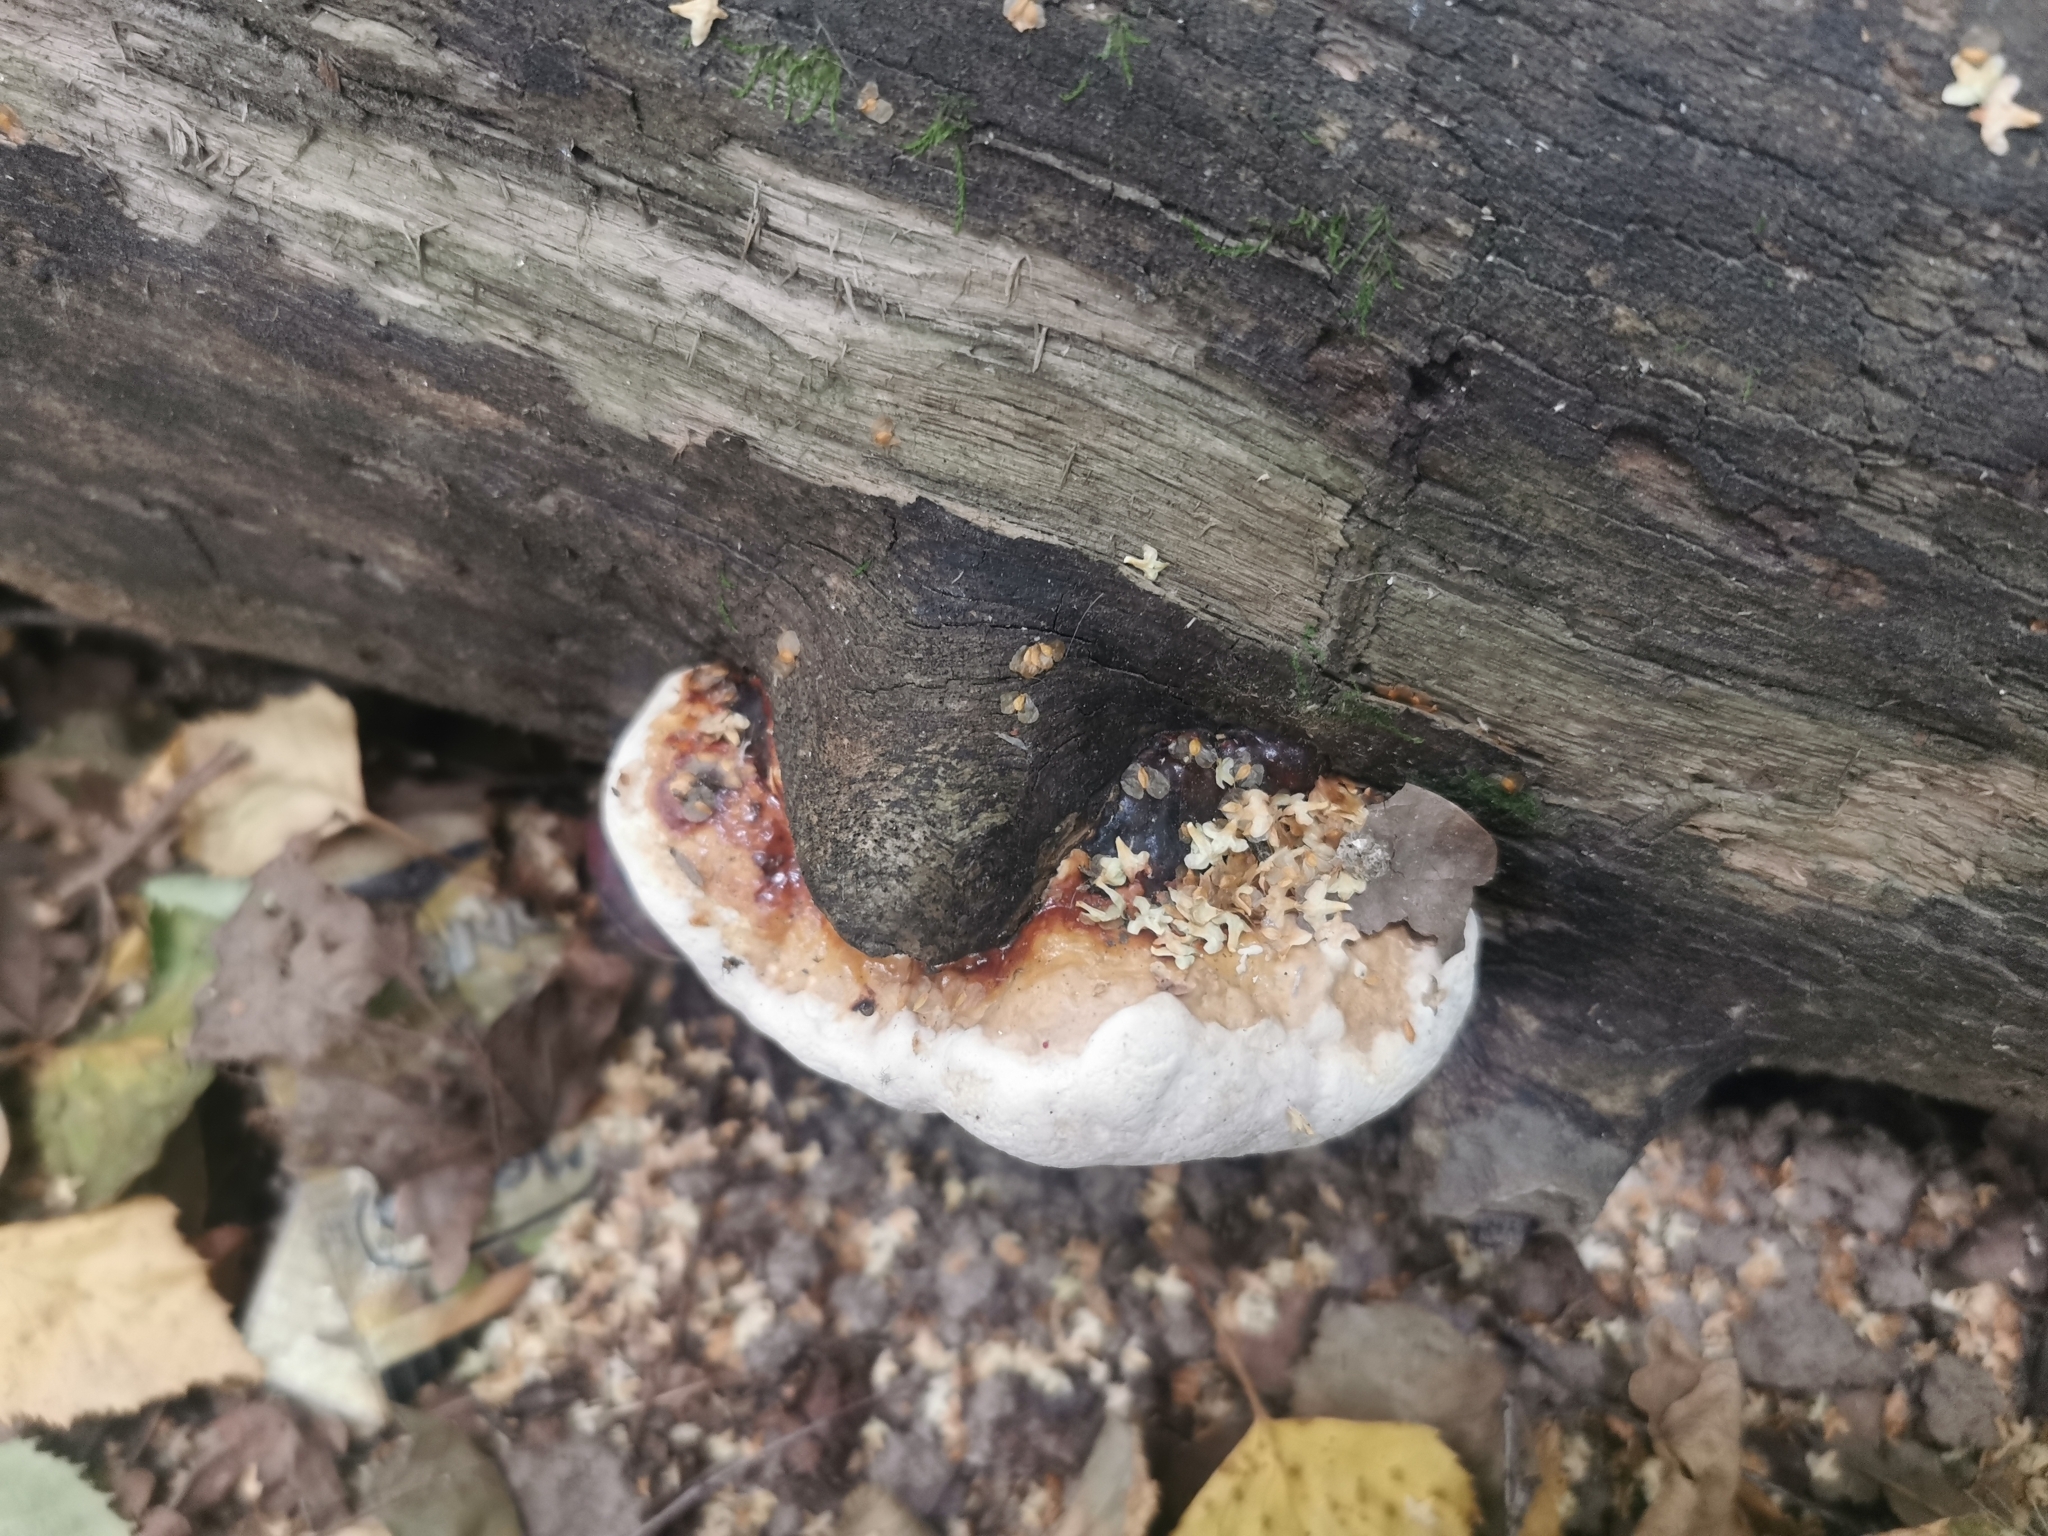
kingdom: Fungi
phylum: Basidiomycota
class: Agaricomycetes
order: Polyporales
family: Fomitopsidaceae
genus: Fomitopsis
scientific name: Fomitopsis pinicola
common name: Red-belted bracket
